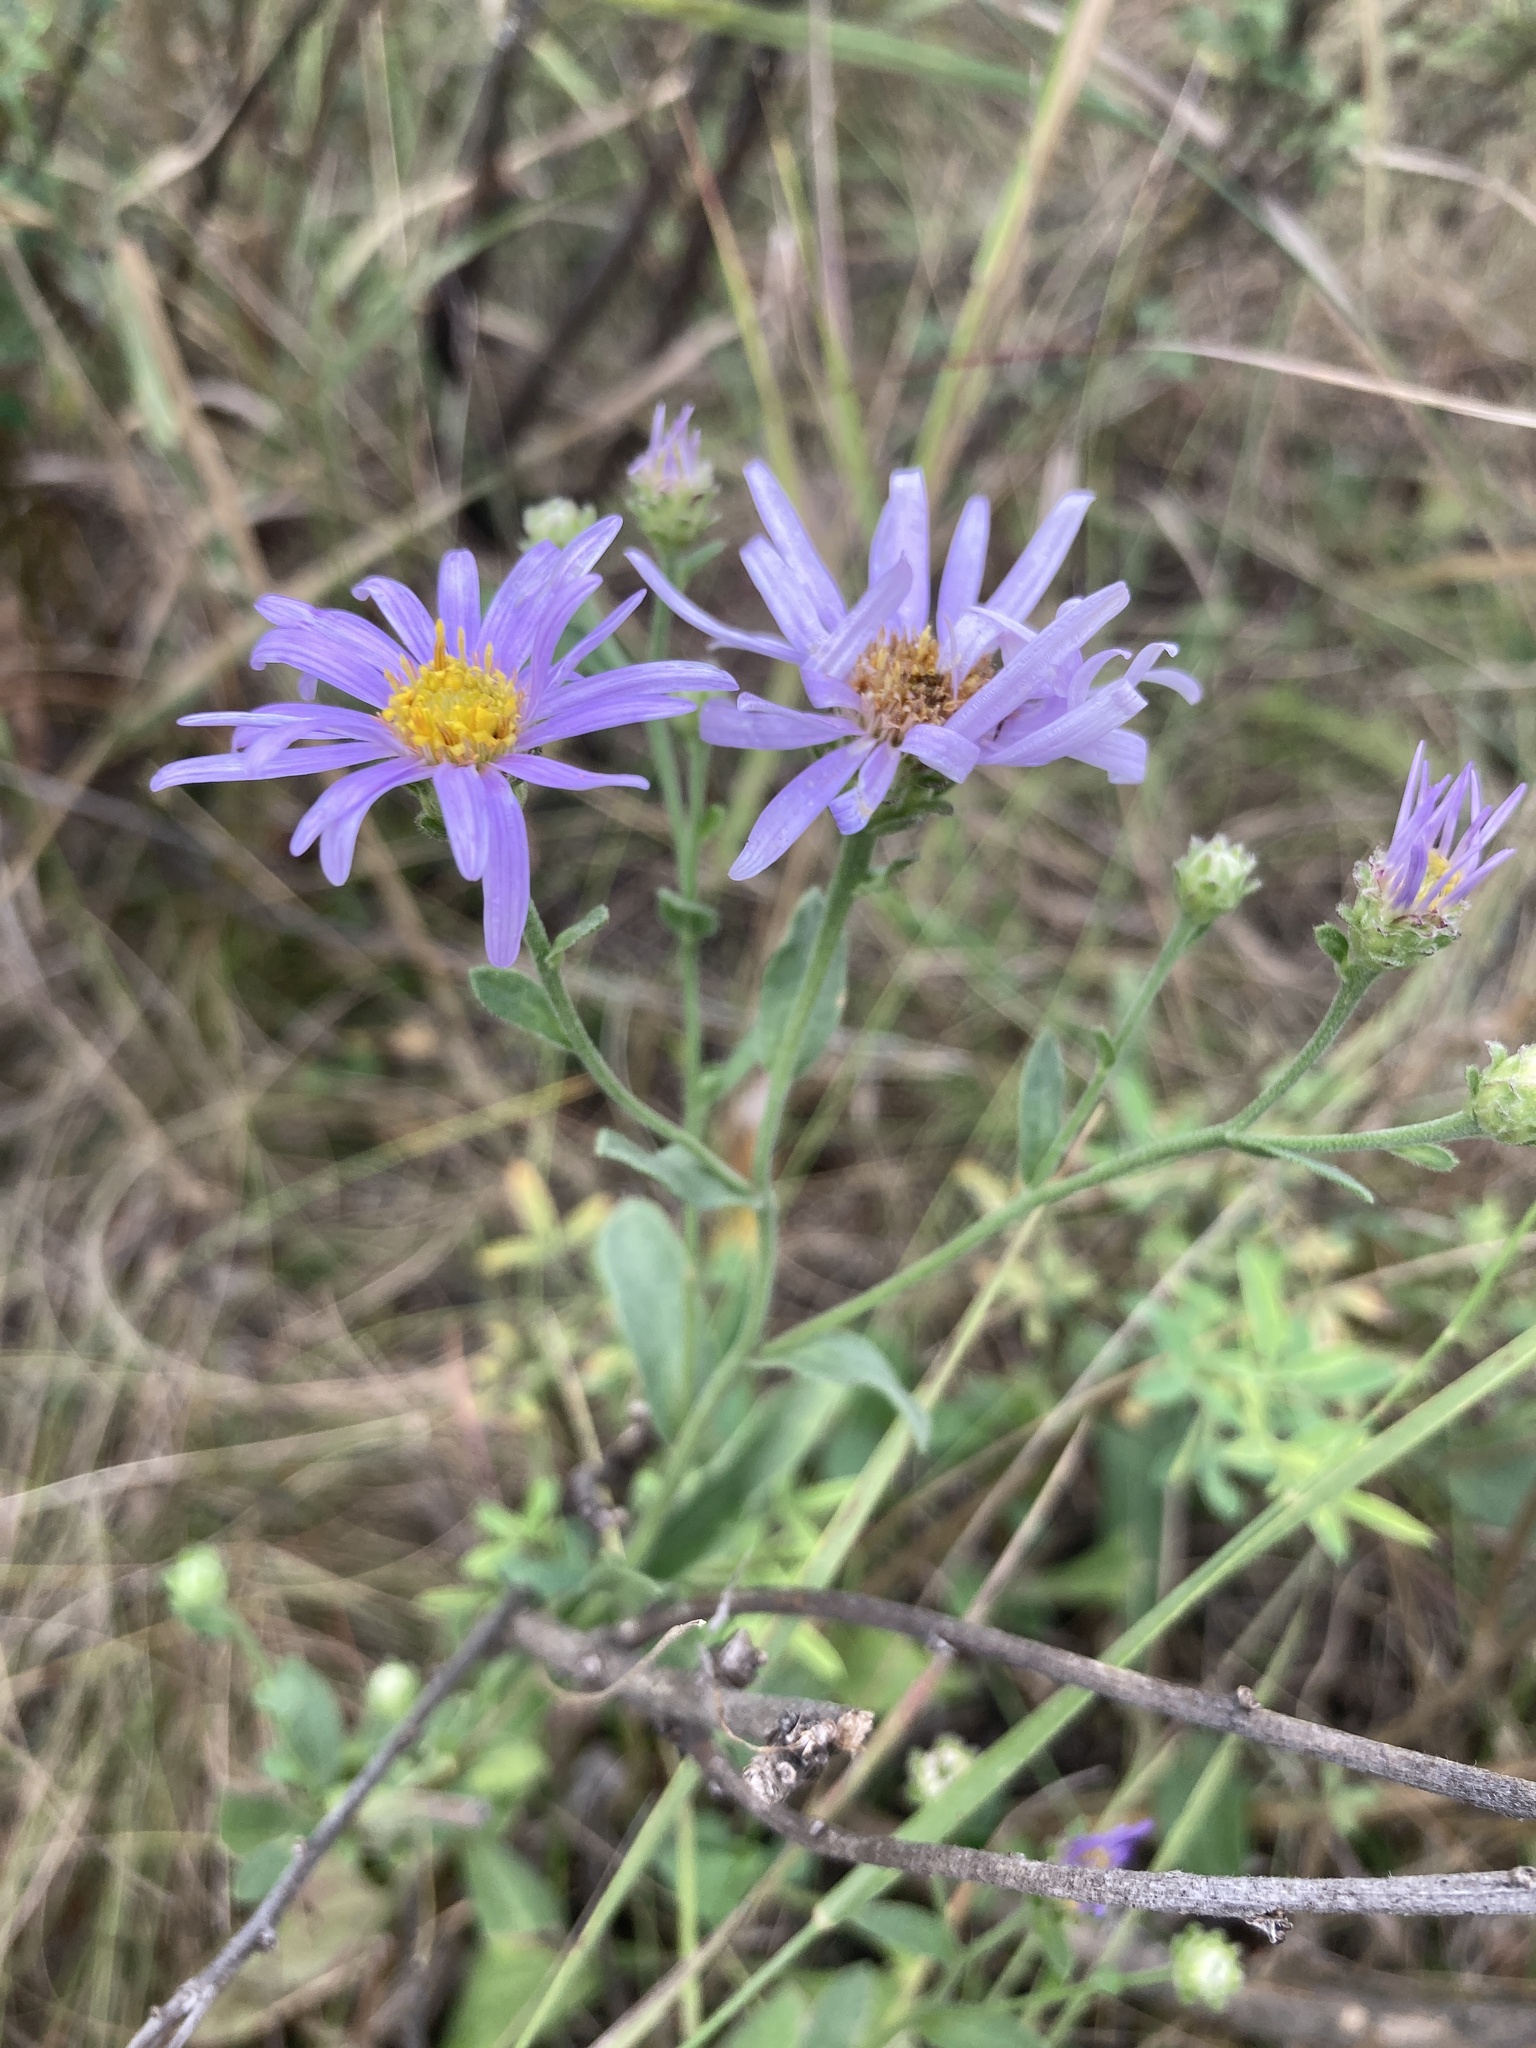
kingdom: Plantae
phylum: Tracheophyta
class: Magnoliopsida
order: Asterales
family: Asteraceae
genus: Aster
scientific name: Aster amellus
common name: European michaelmas daisy
